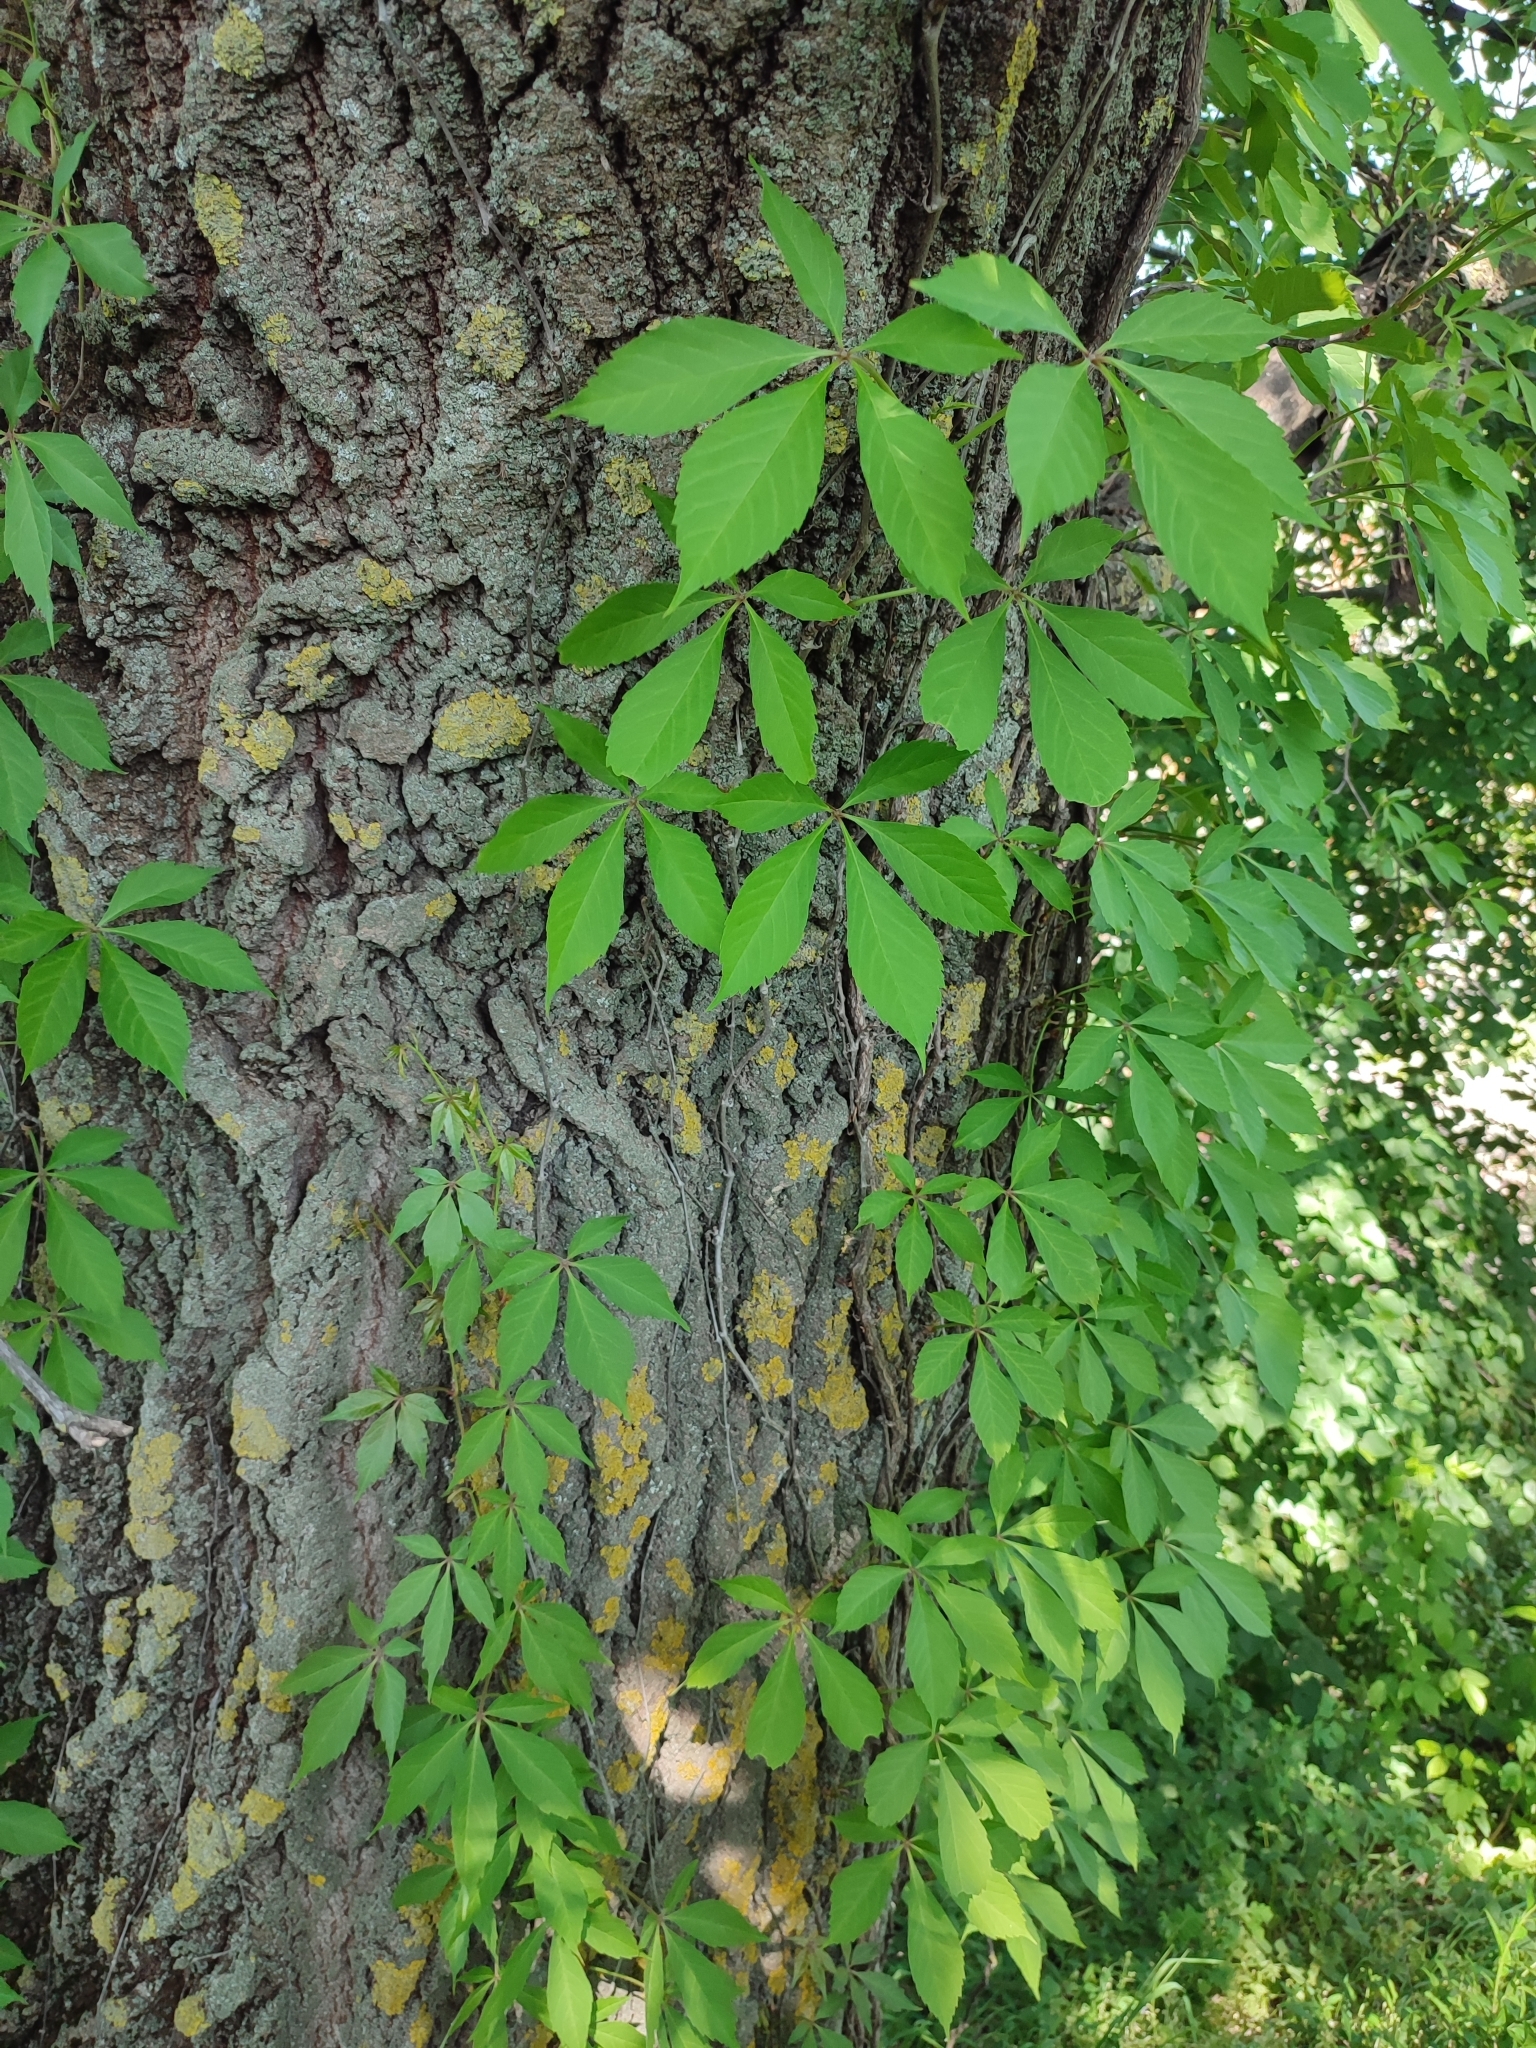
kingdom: Plantae
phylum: Tracheophyta
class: Magnoliopsida
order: Vitales
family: Vitaceae
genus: Parthenocissus
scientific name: Parthenocissus inserta
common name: False virginia-creeper
